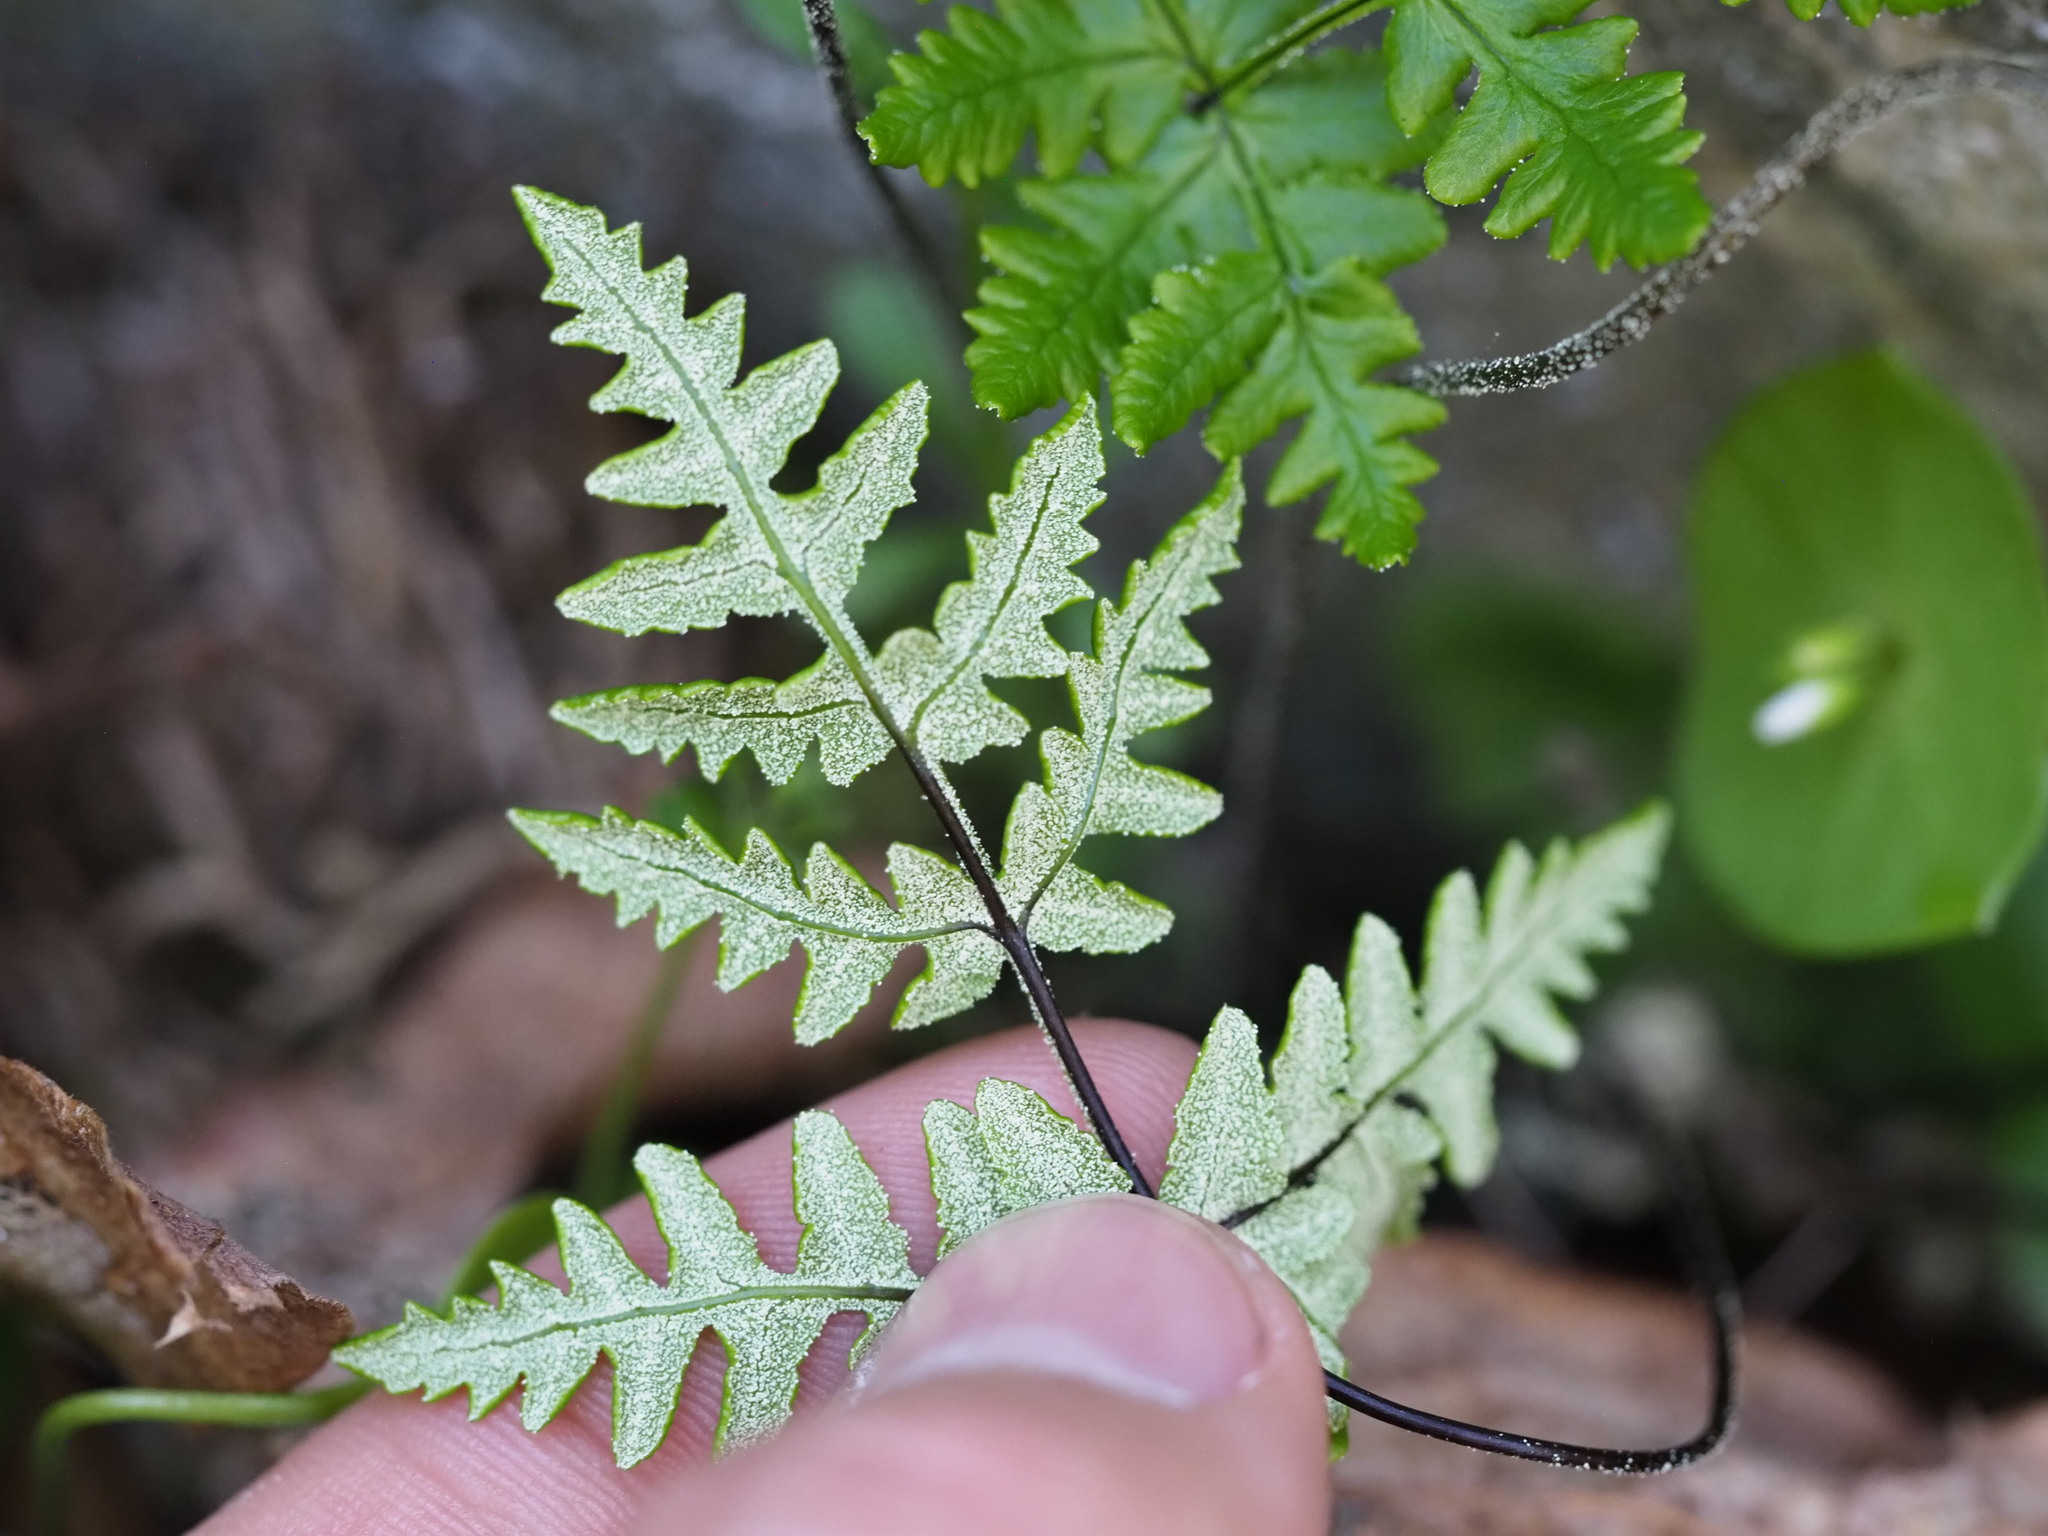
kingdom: Plantae
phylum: Tracheophyta
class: Polypodiopsida
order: Polypodiales
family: Pteridaceae
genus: Pentagramma
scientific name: Pentagramma triangularis
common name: Gold fern
